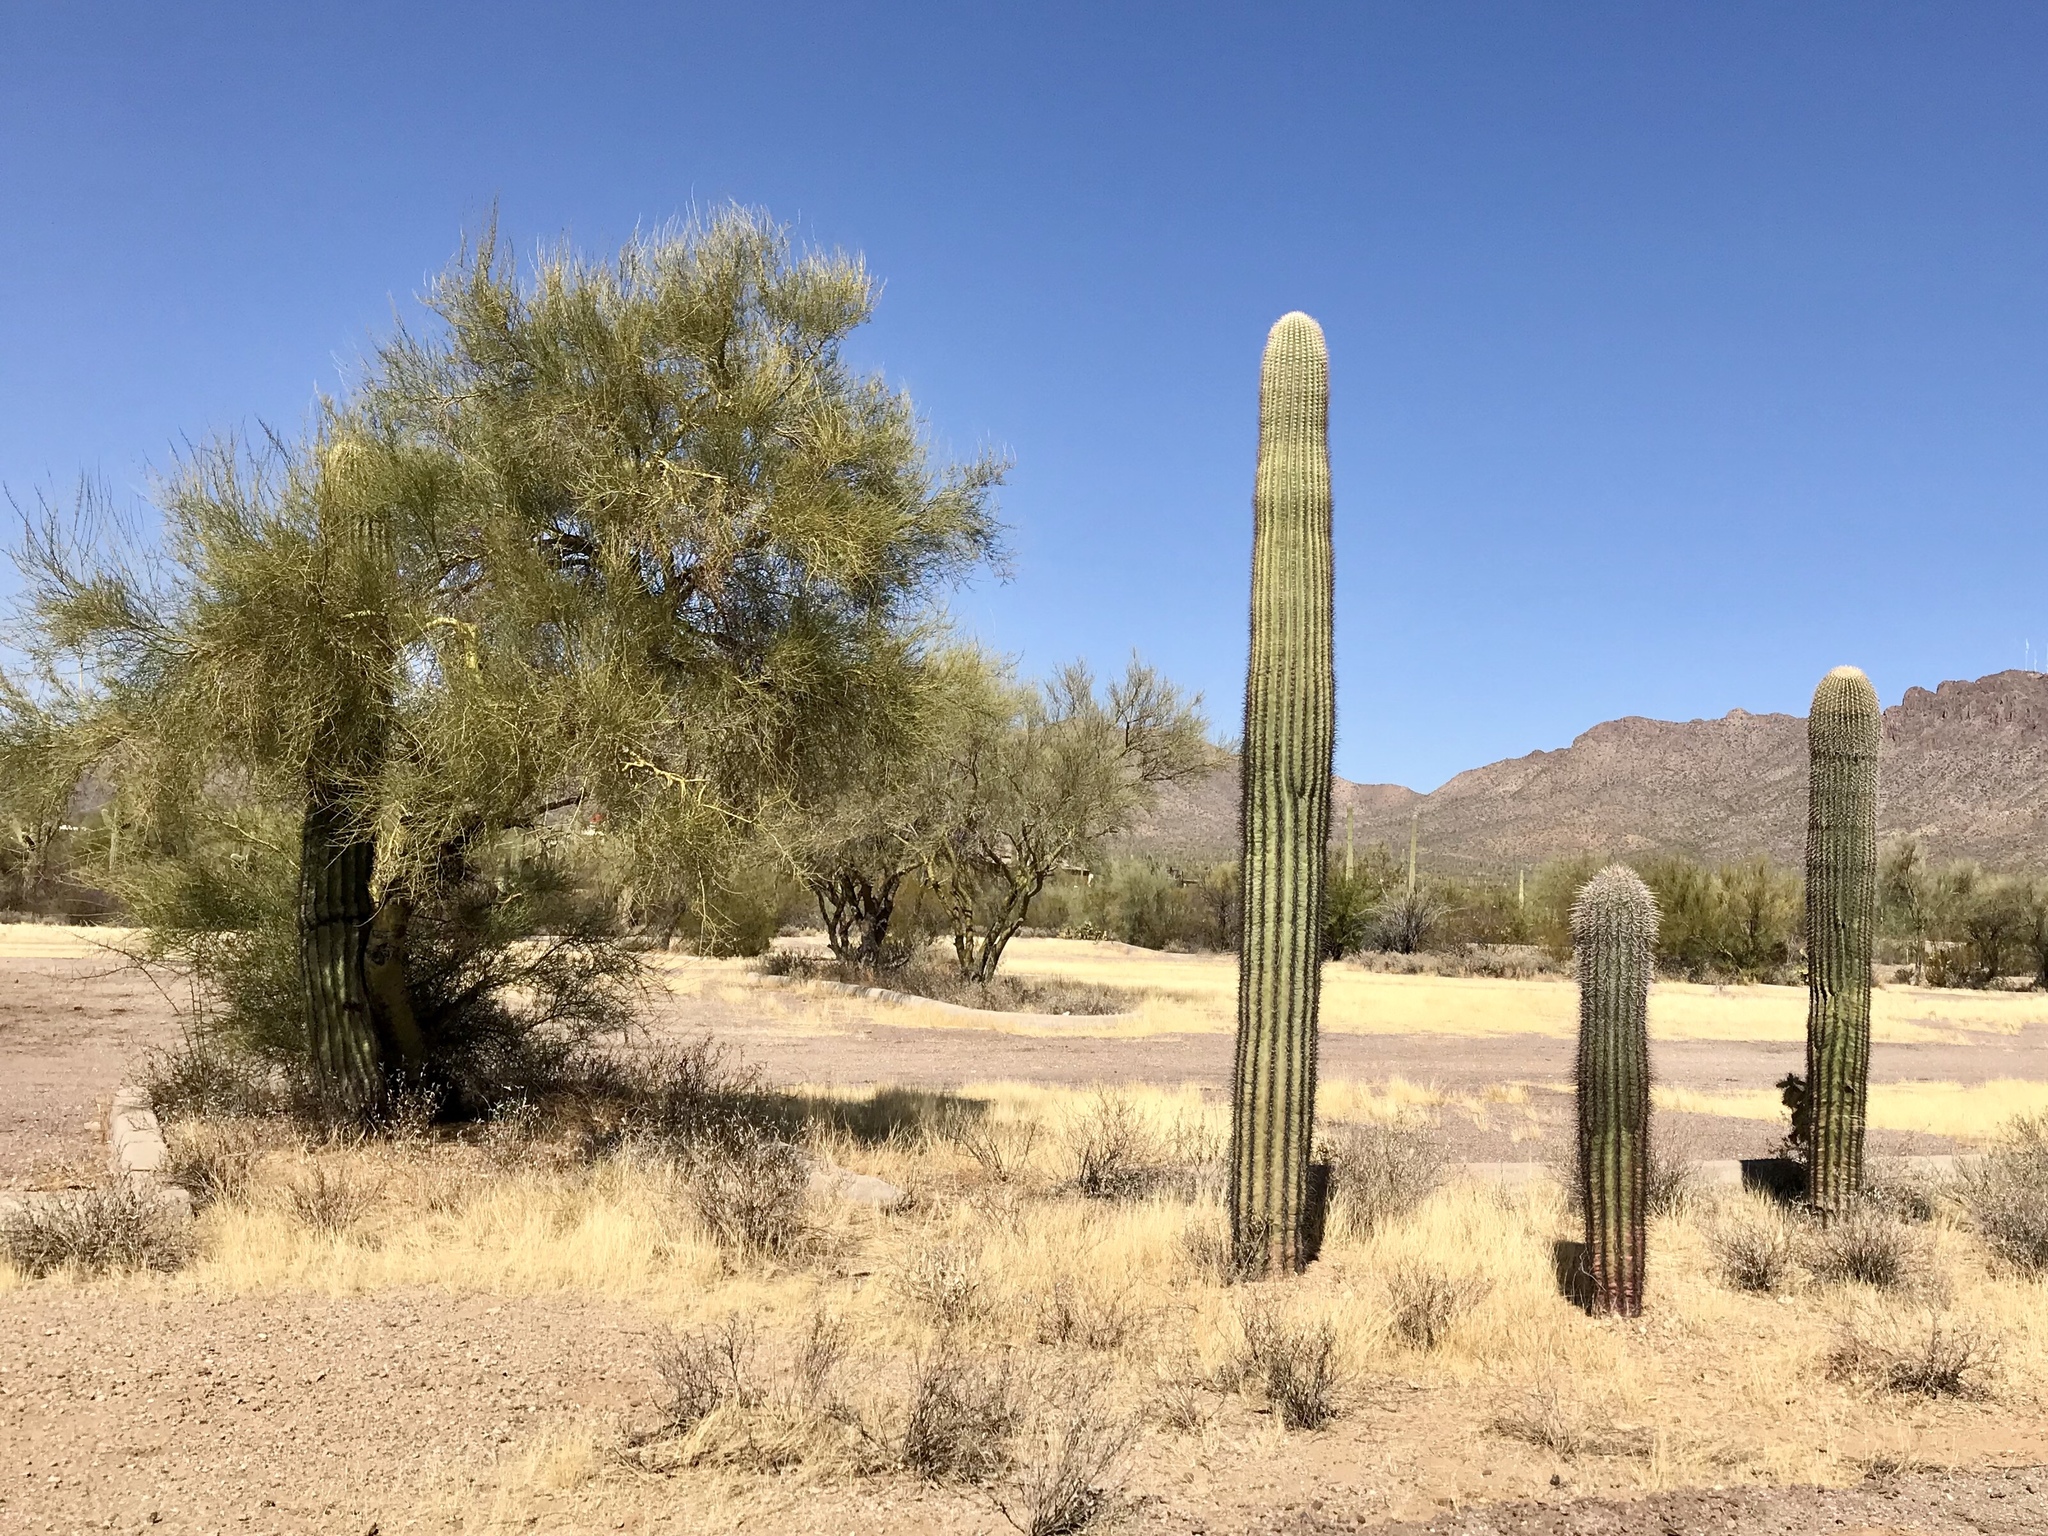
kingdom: Plantae
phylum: Tracheophyta
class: Magnoliopsida
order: Fabales
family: Fabaceae
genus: Parkinsonia
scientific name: Parkinsonia microphylla
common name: Yellow paloverde
